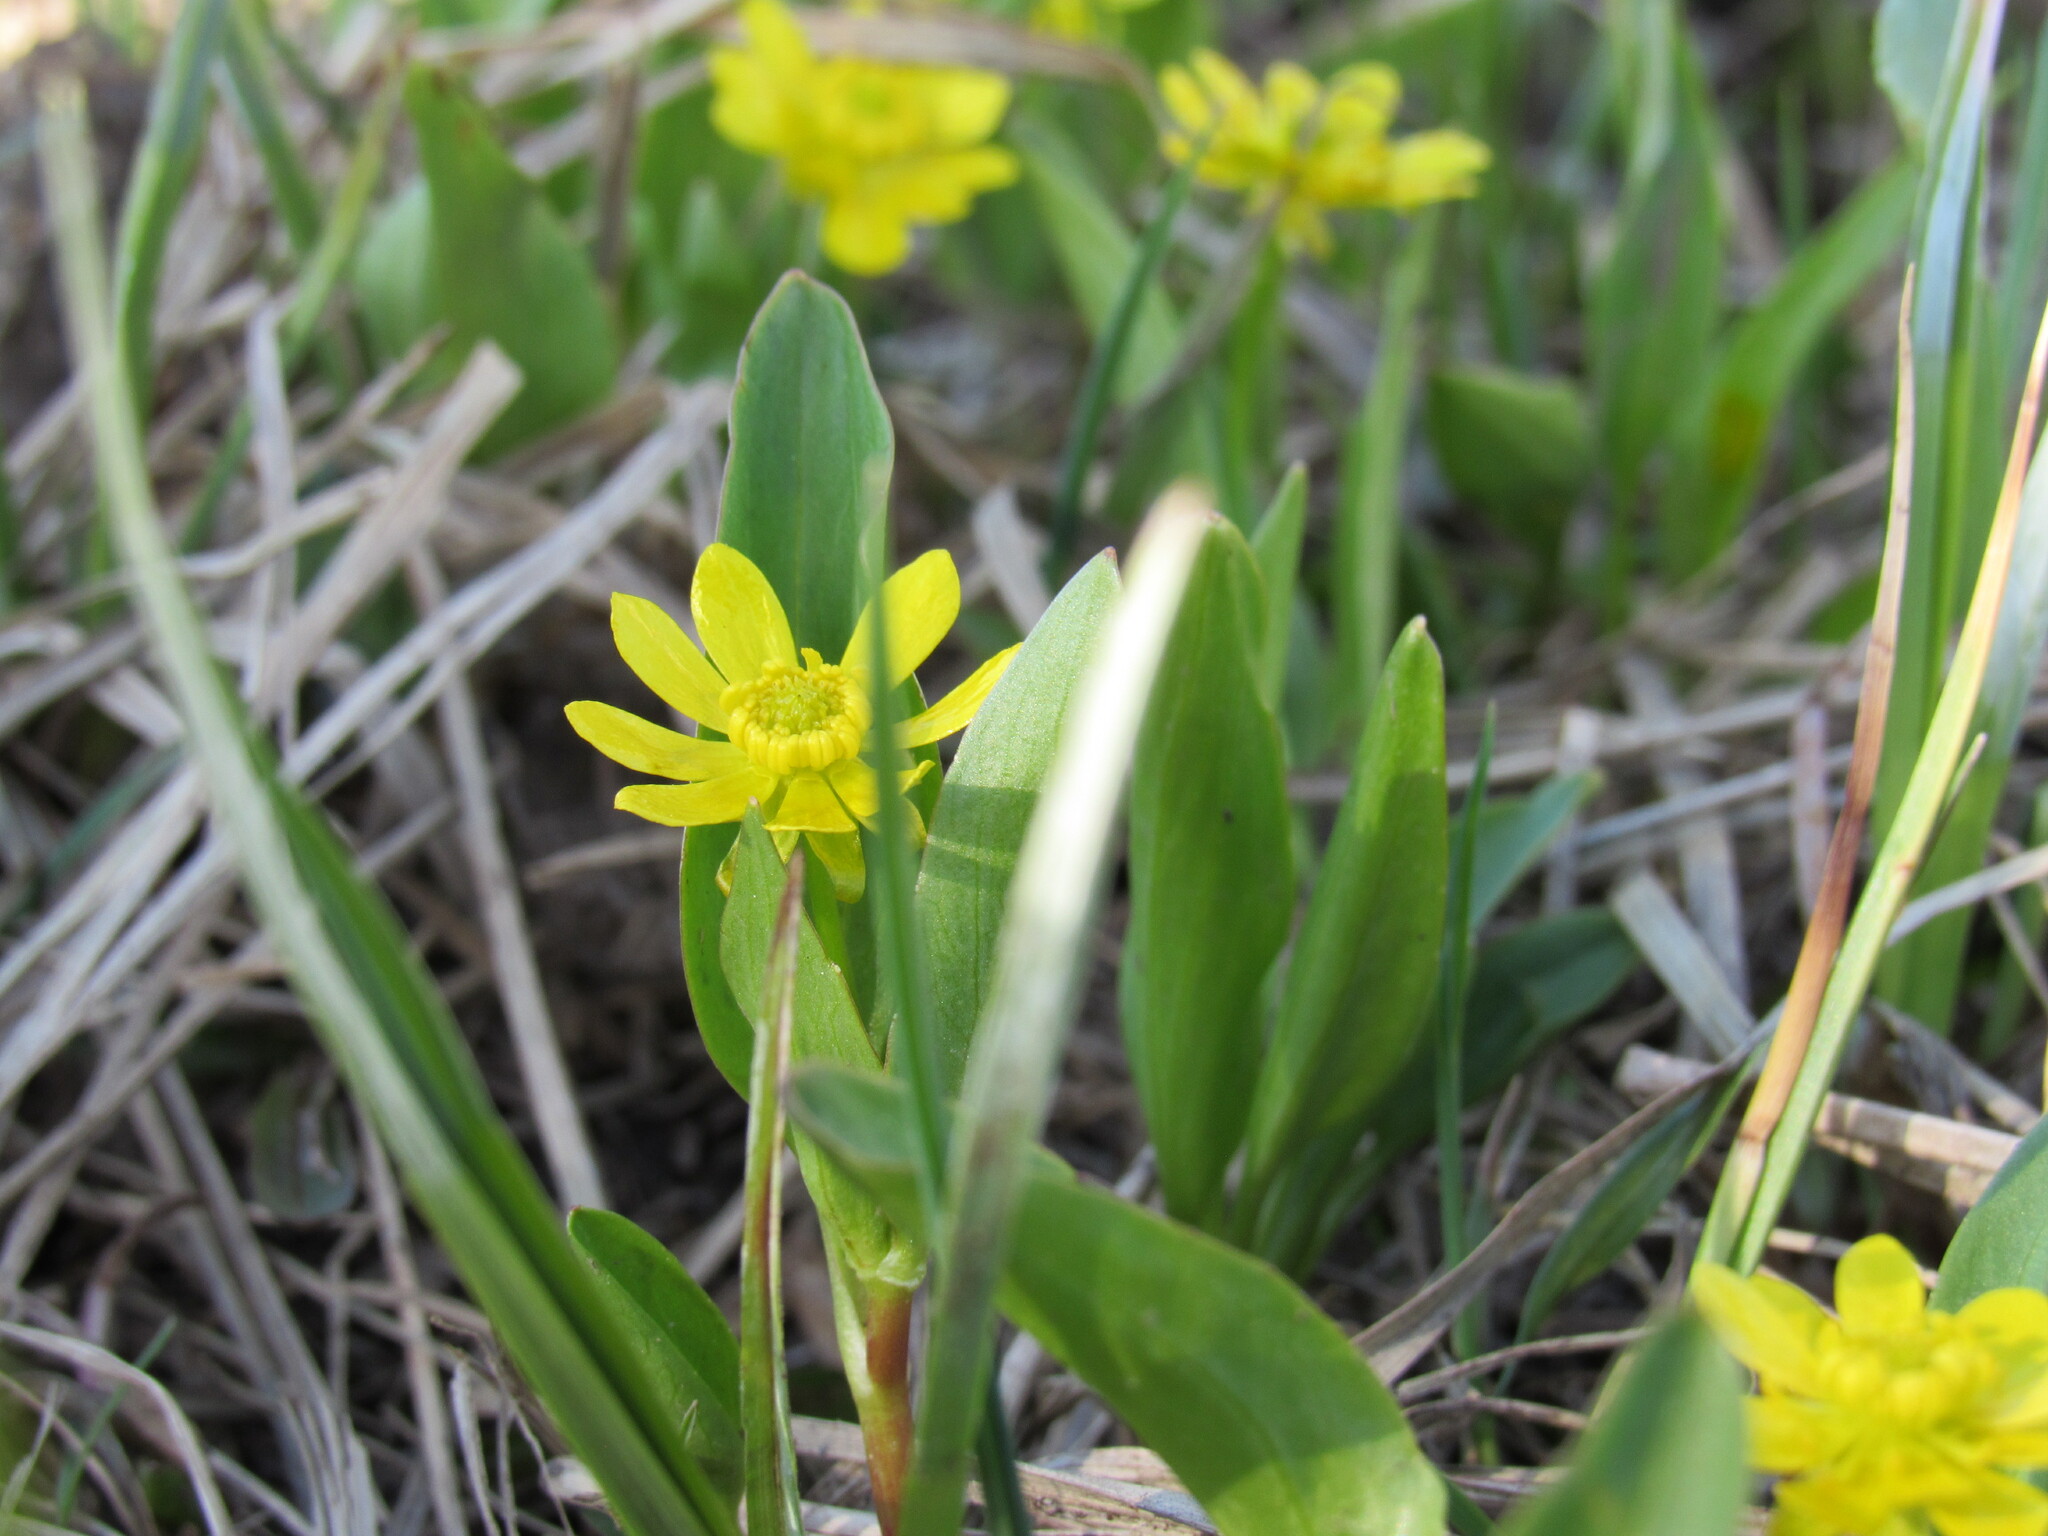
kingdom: Plantae
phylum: Tracheophyta
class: Magnoliopsida
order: Ranunculales
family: Ranunculaceae
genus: Ranunculus
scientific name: Ranunculus alismifolius
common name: Plantain-leaved buttercup
